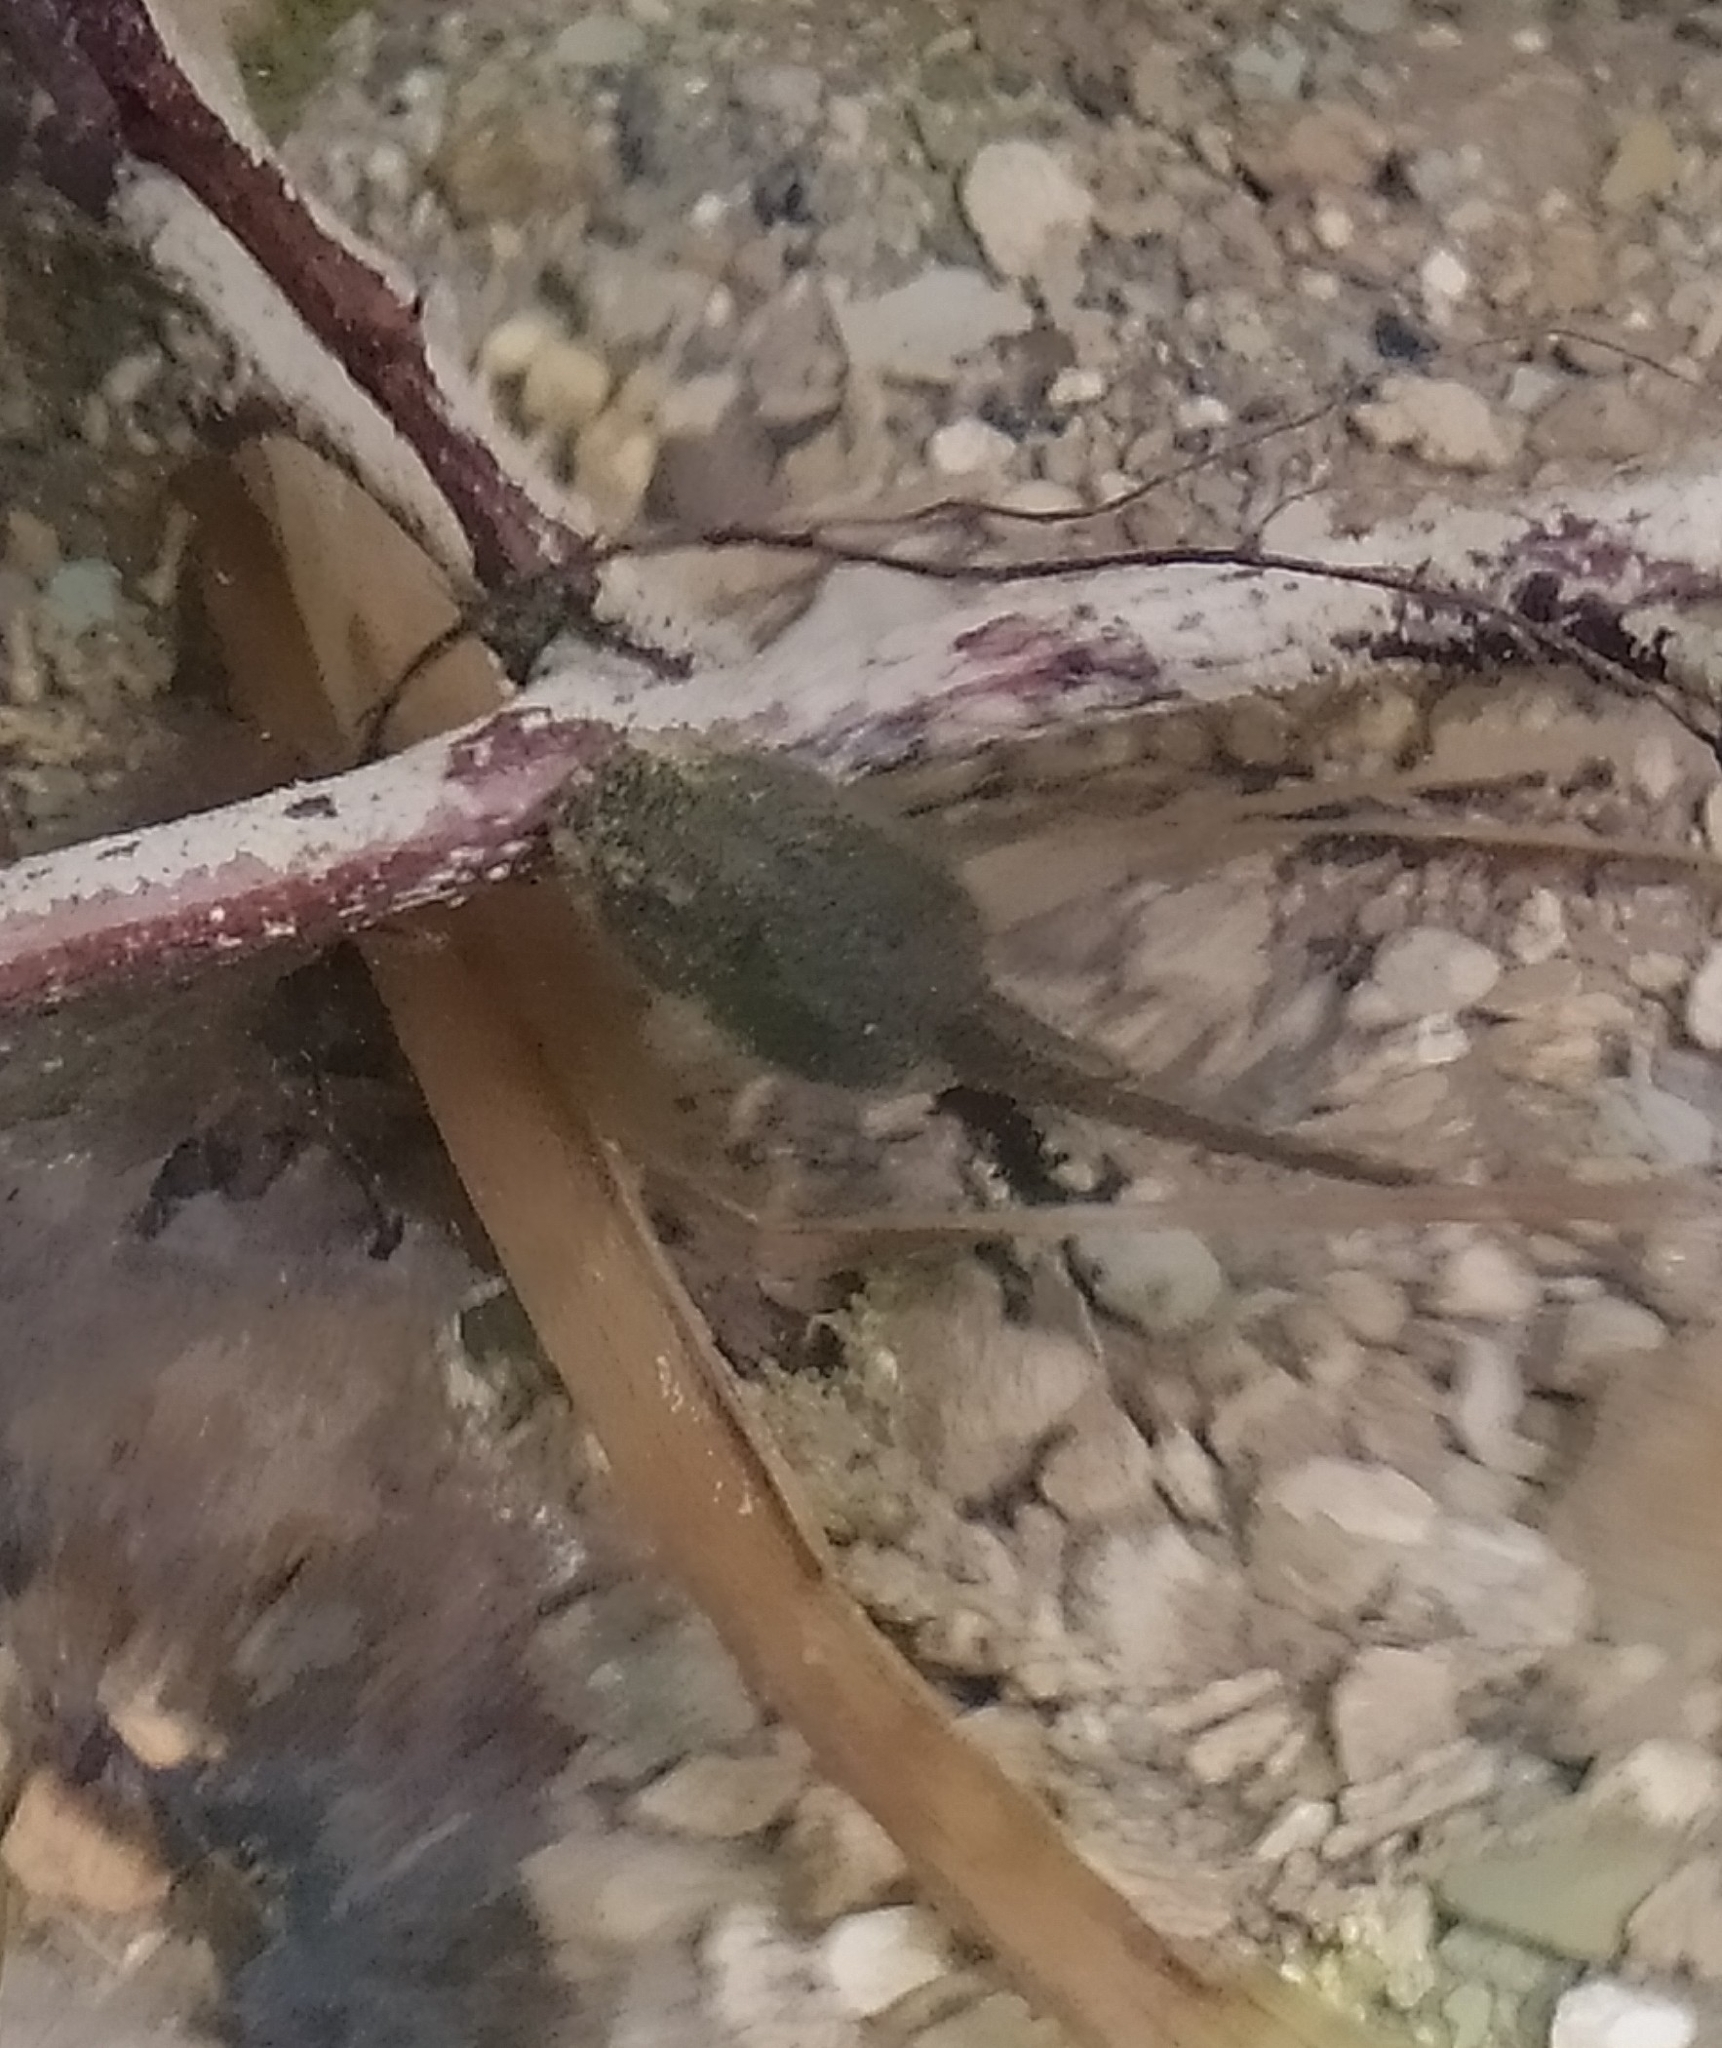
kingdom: Animalia
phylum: Chordata
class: Amphibia
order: Anura
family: Ranidae
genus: Rana
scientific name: Rana italica
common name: Italian stream frog
